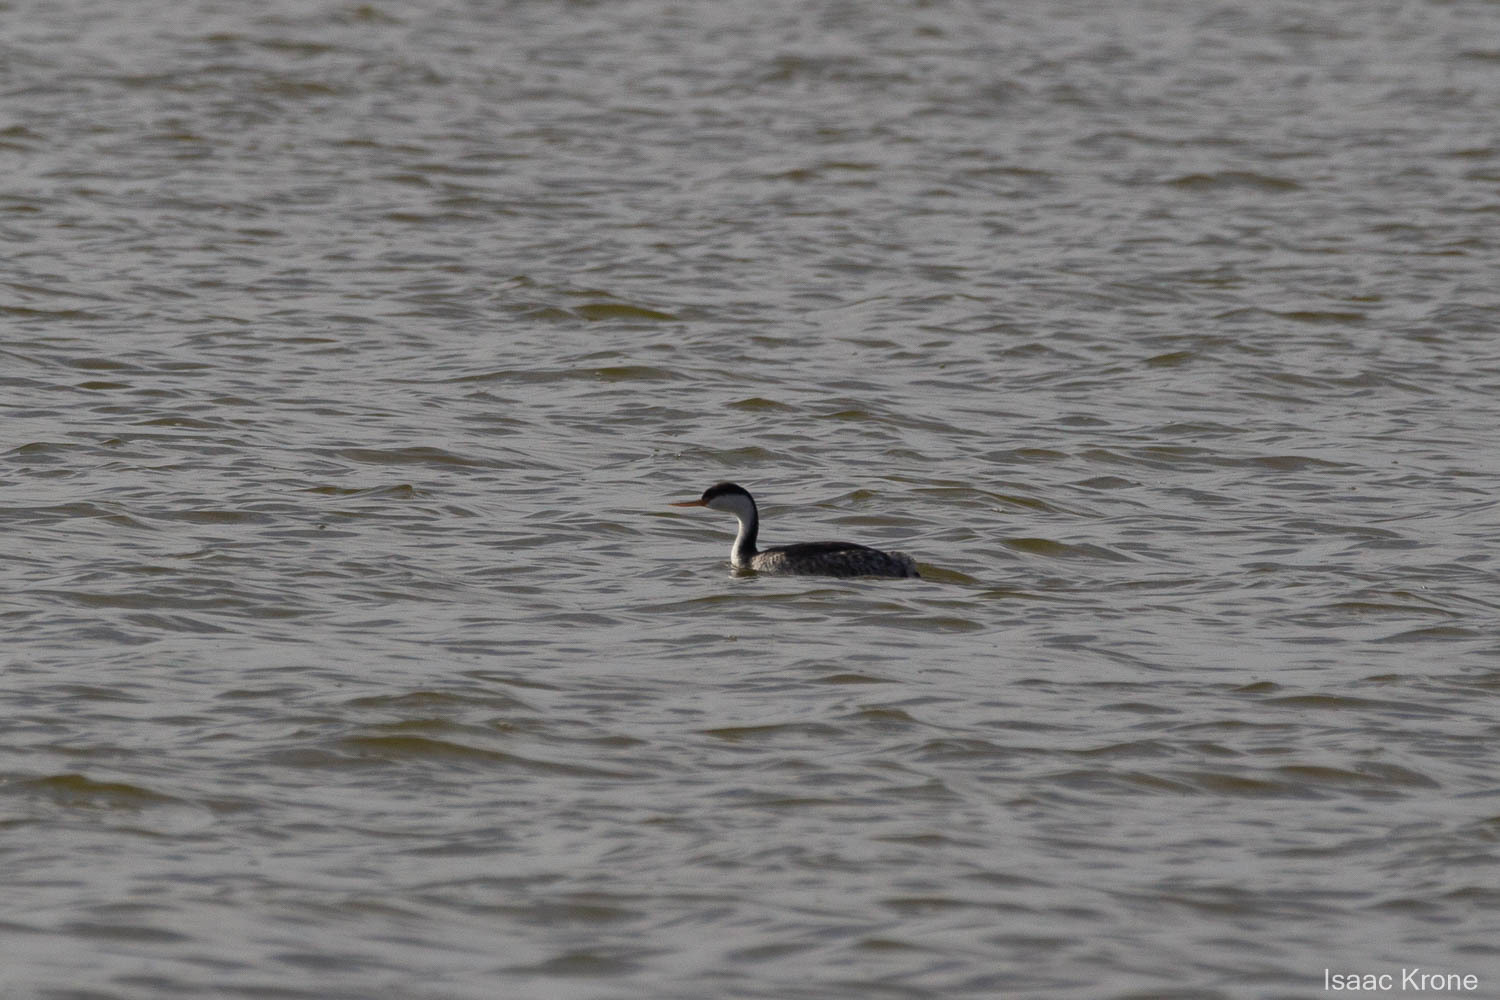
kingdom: Animalia
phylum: Chordata
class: Aves
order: Podicipediformes
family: Podicipedidae
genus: Aechmophorus
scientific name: Aechmophorus
